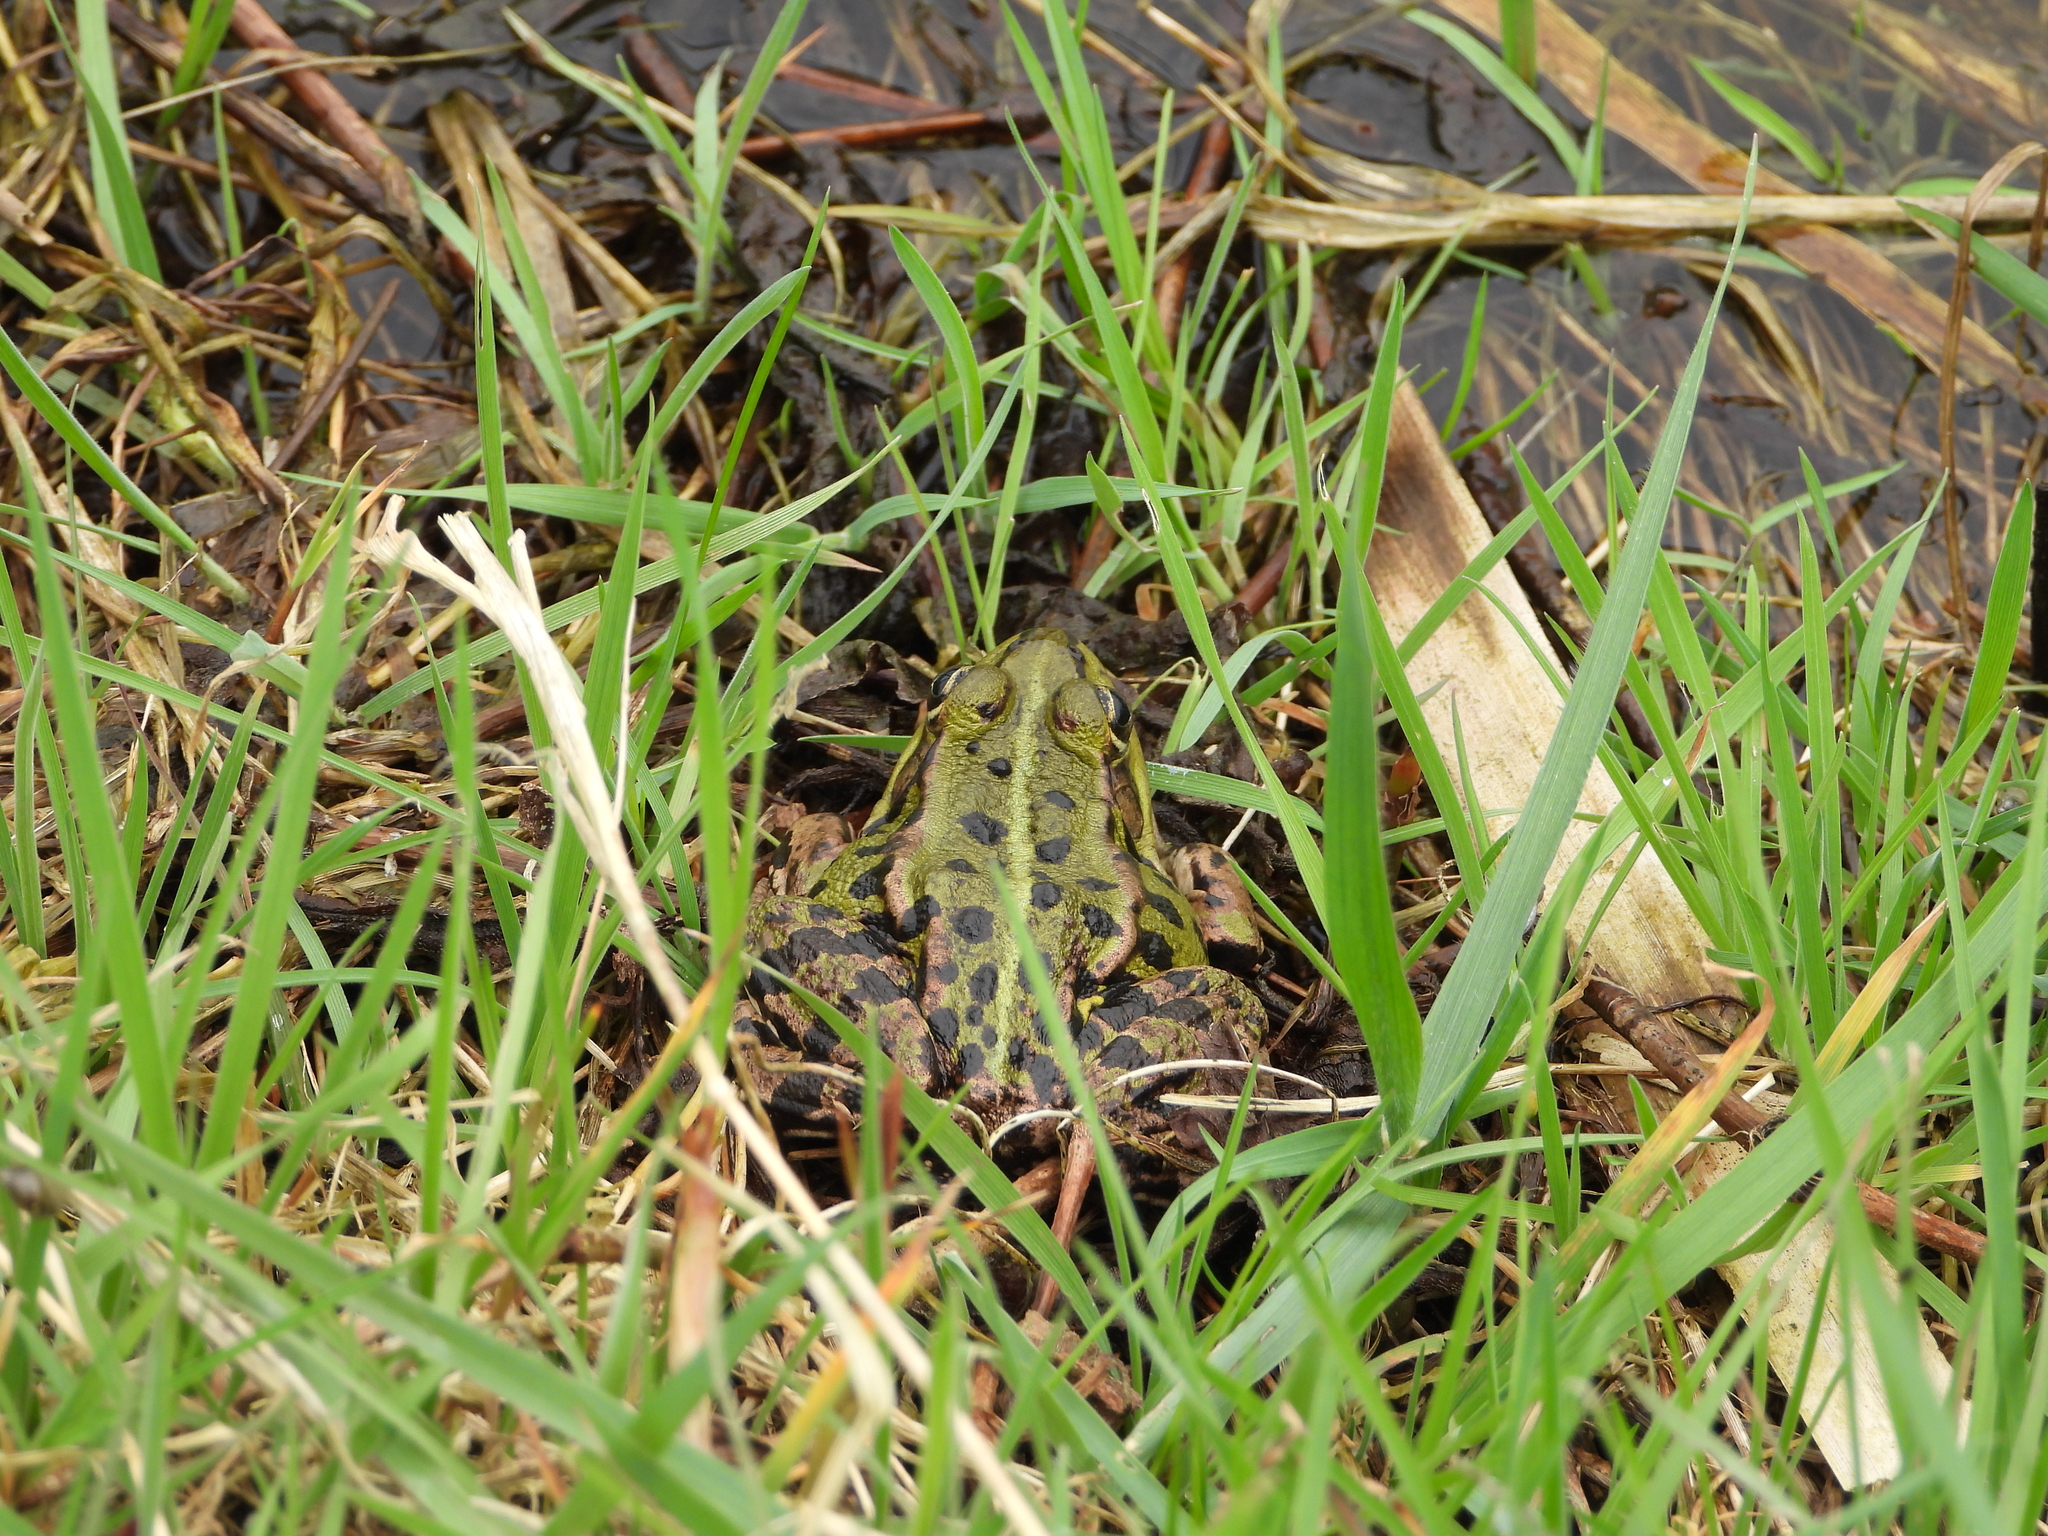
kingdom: Animalia
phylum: Chordata
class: Amphibia
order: Anura
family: Ranidae
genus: Pelophylax
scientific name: Pelophylax lessonae
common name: Pool frog
